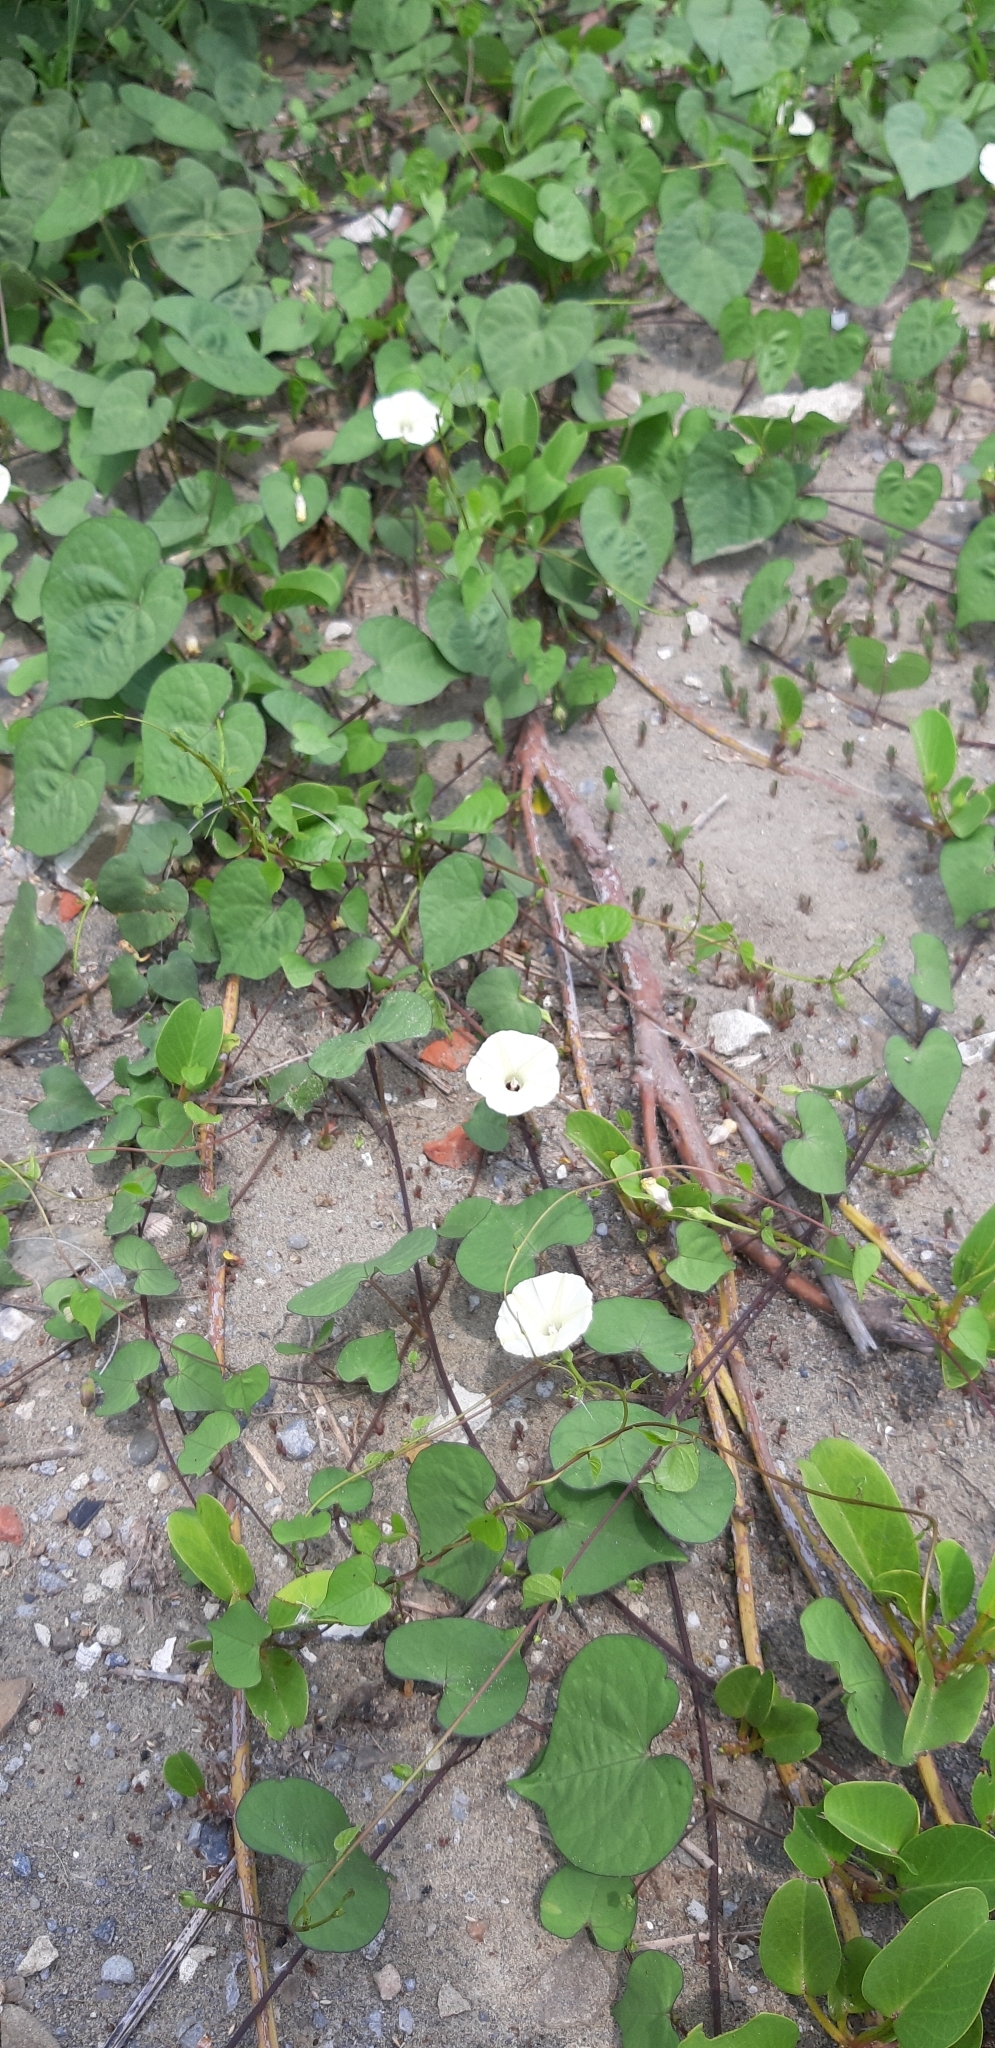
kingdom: Plantae
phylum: Tracheophyta
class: Magnoliopsida
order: Solanales
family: Convolvulaceae
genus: Ipomoea
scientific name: Ipomoea obscura
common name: Obscure morning-glory
